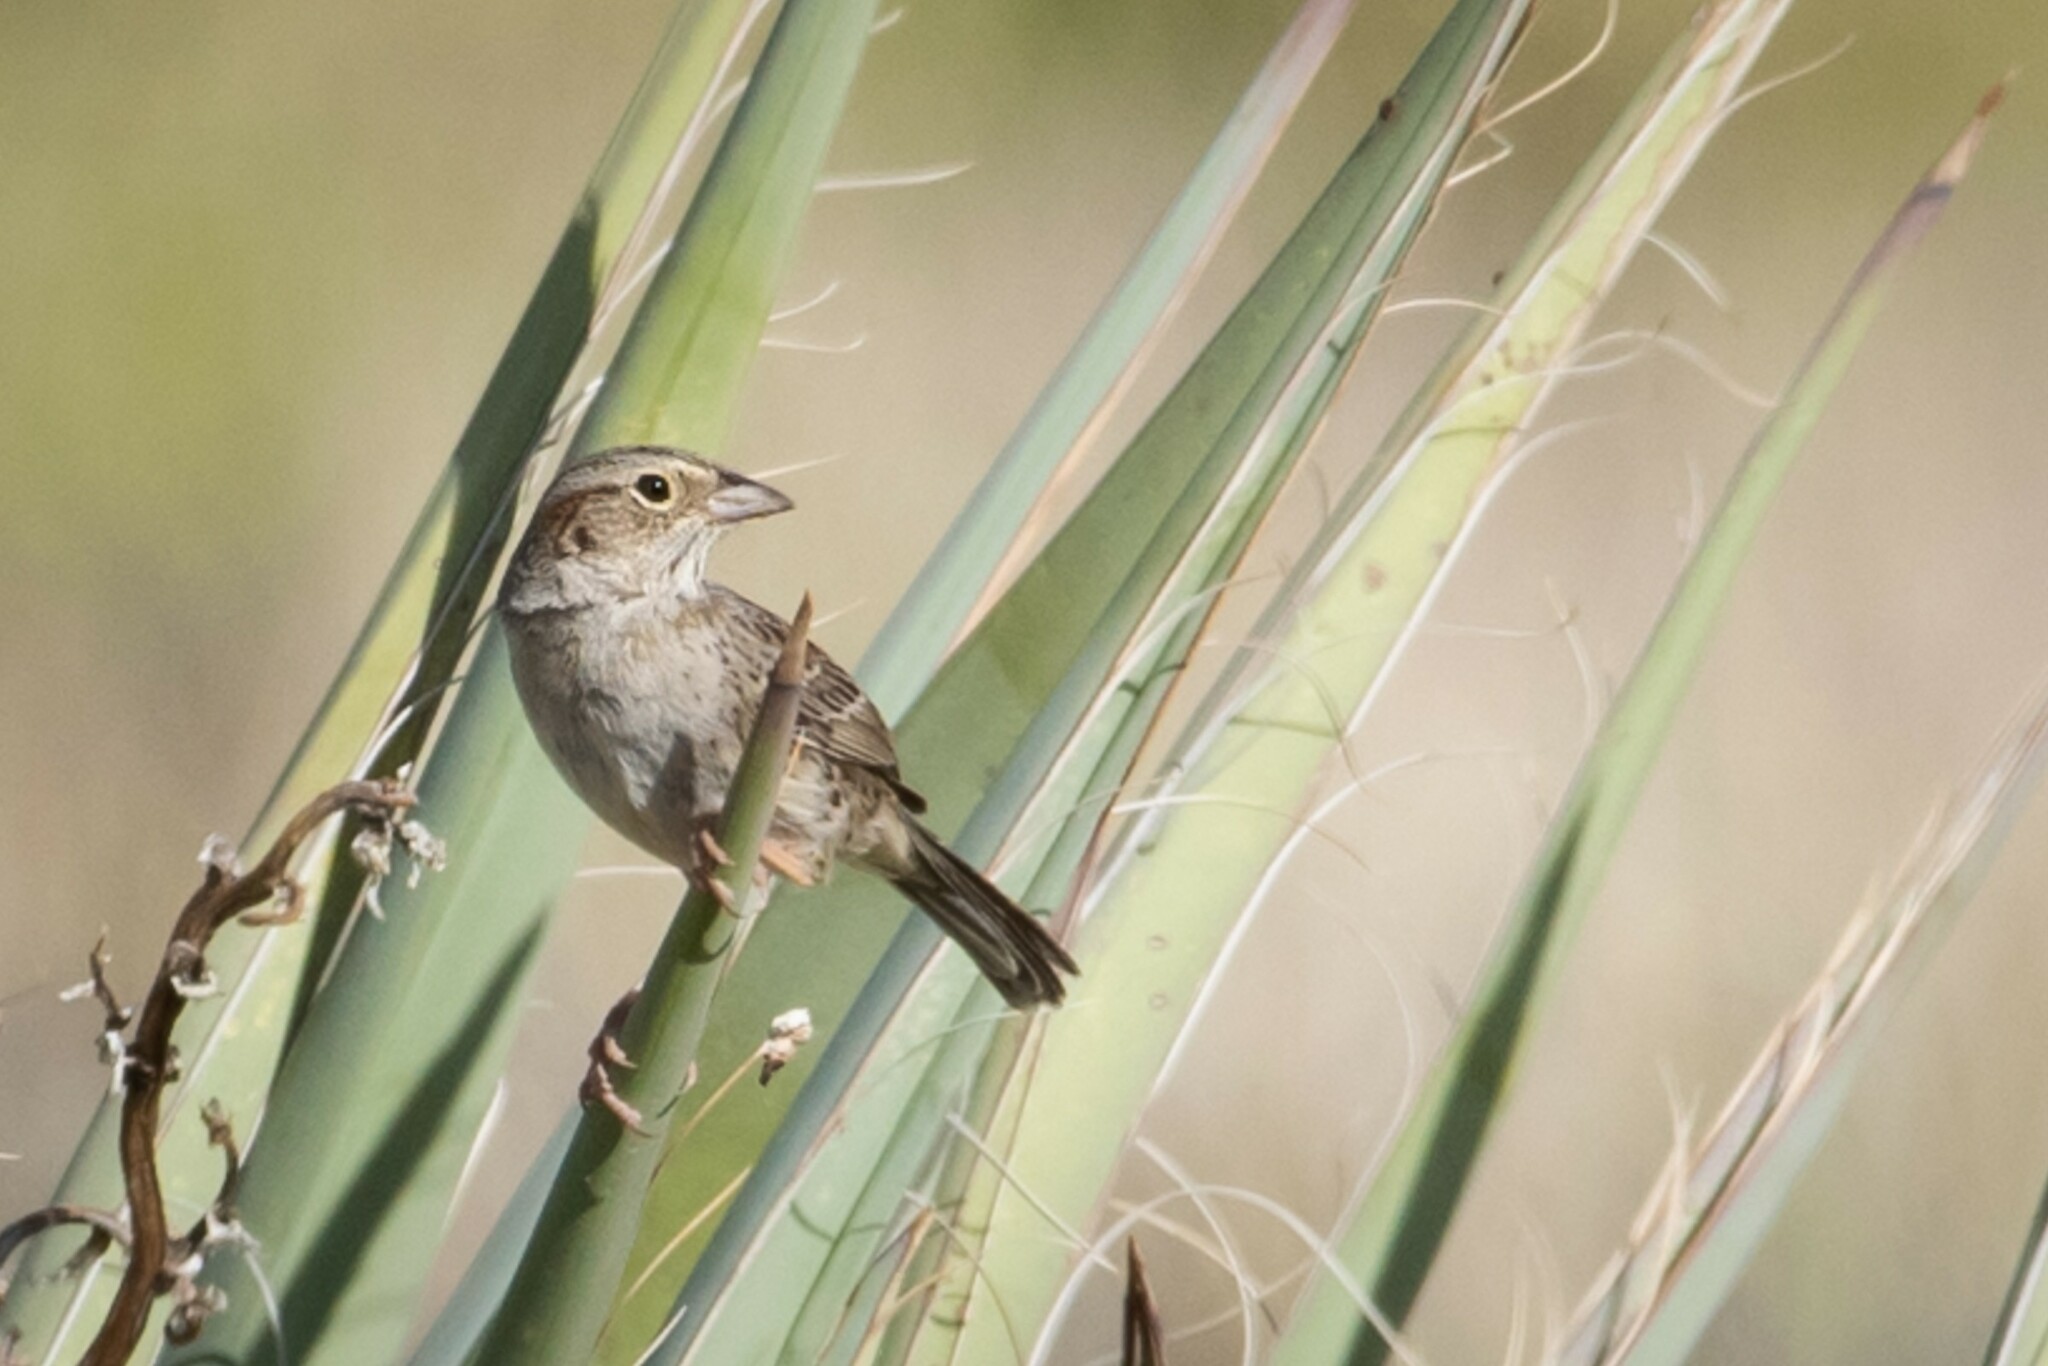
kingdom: Animalia
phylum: Chordata
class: Aves
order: Passeriformes
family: Passerellidae
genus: Peucaea
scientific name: Peucaea cassinii
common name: Cassin's sparrow
